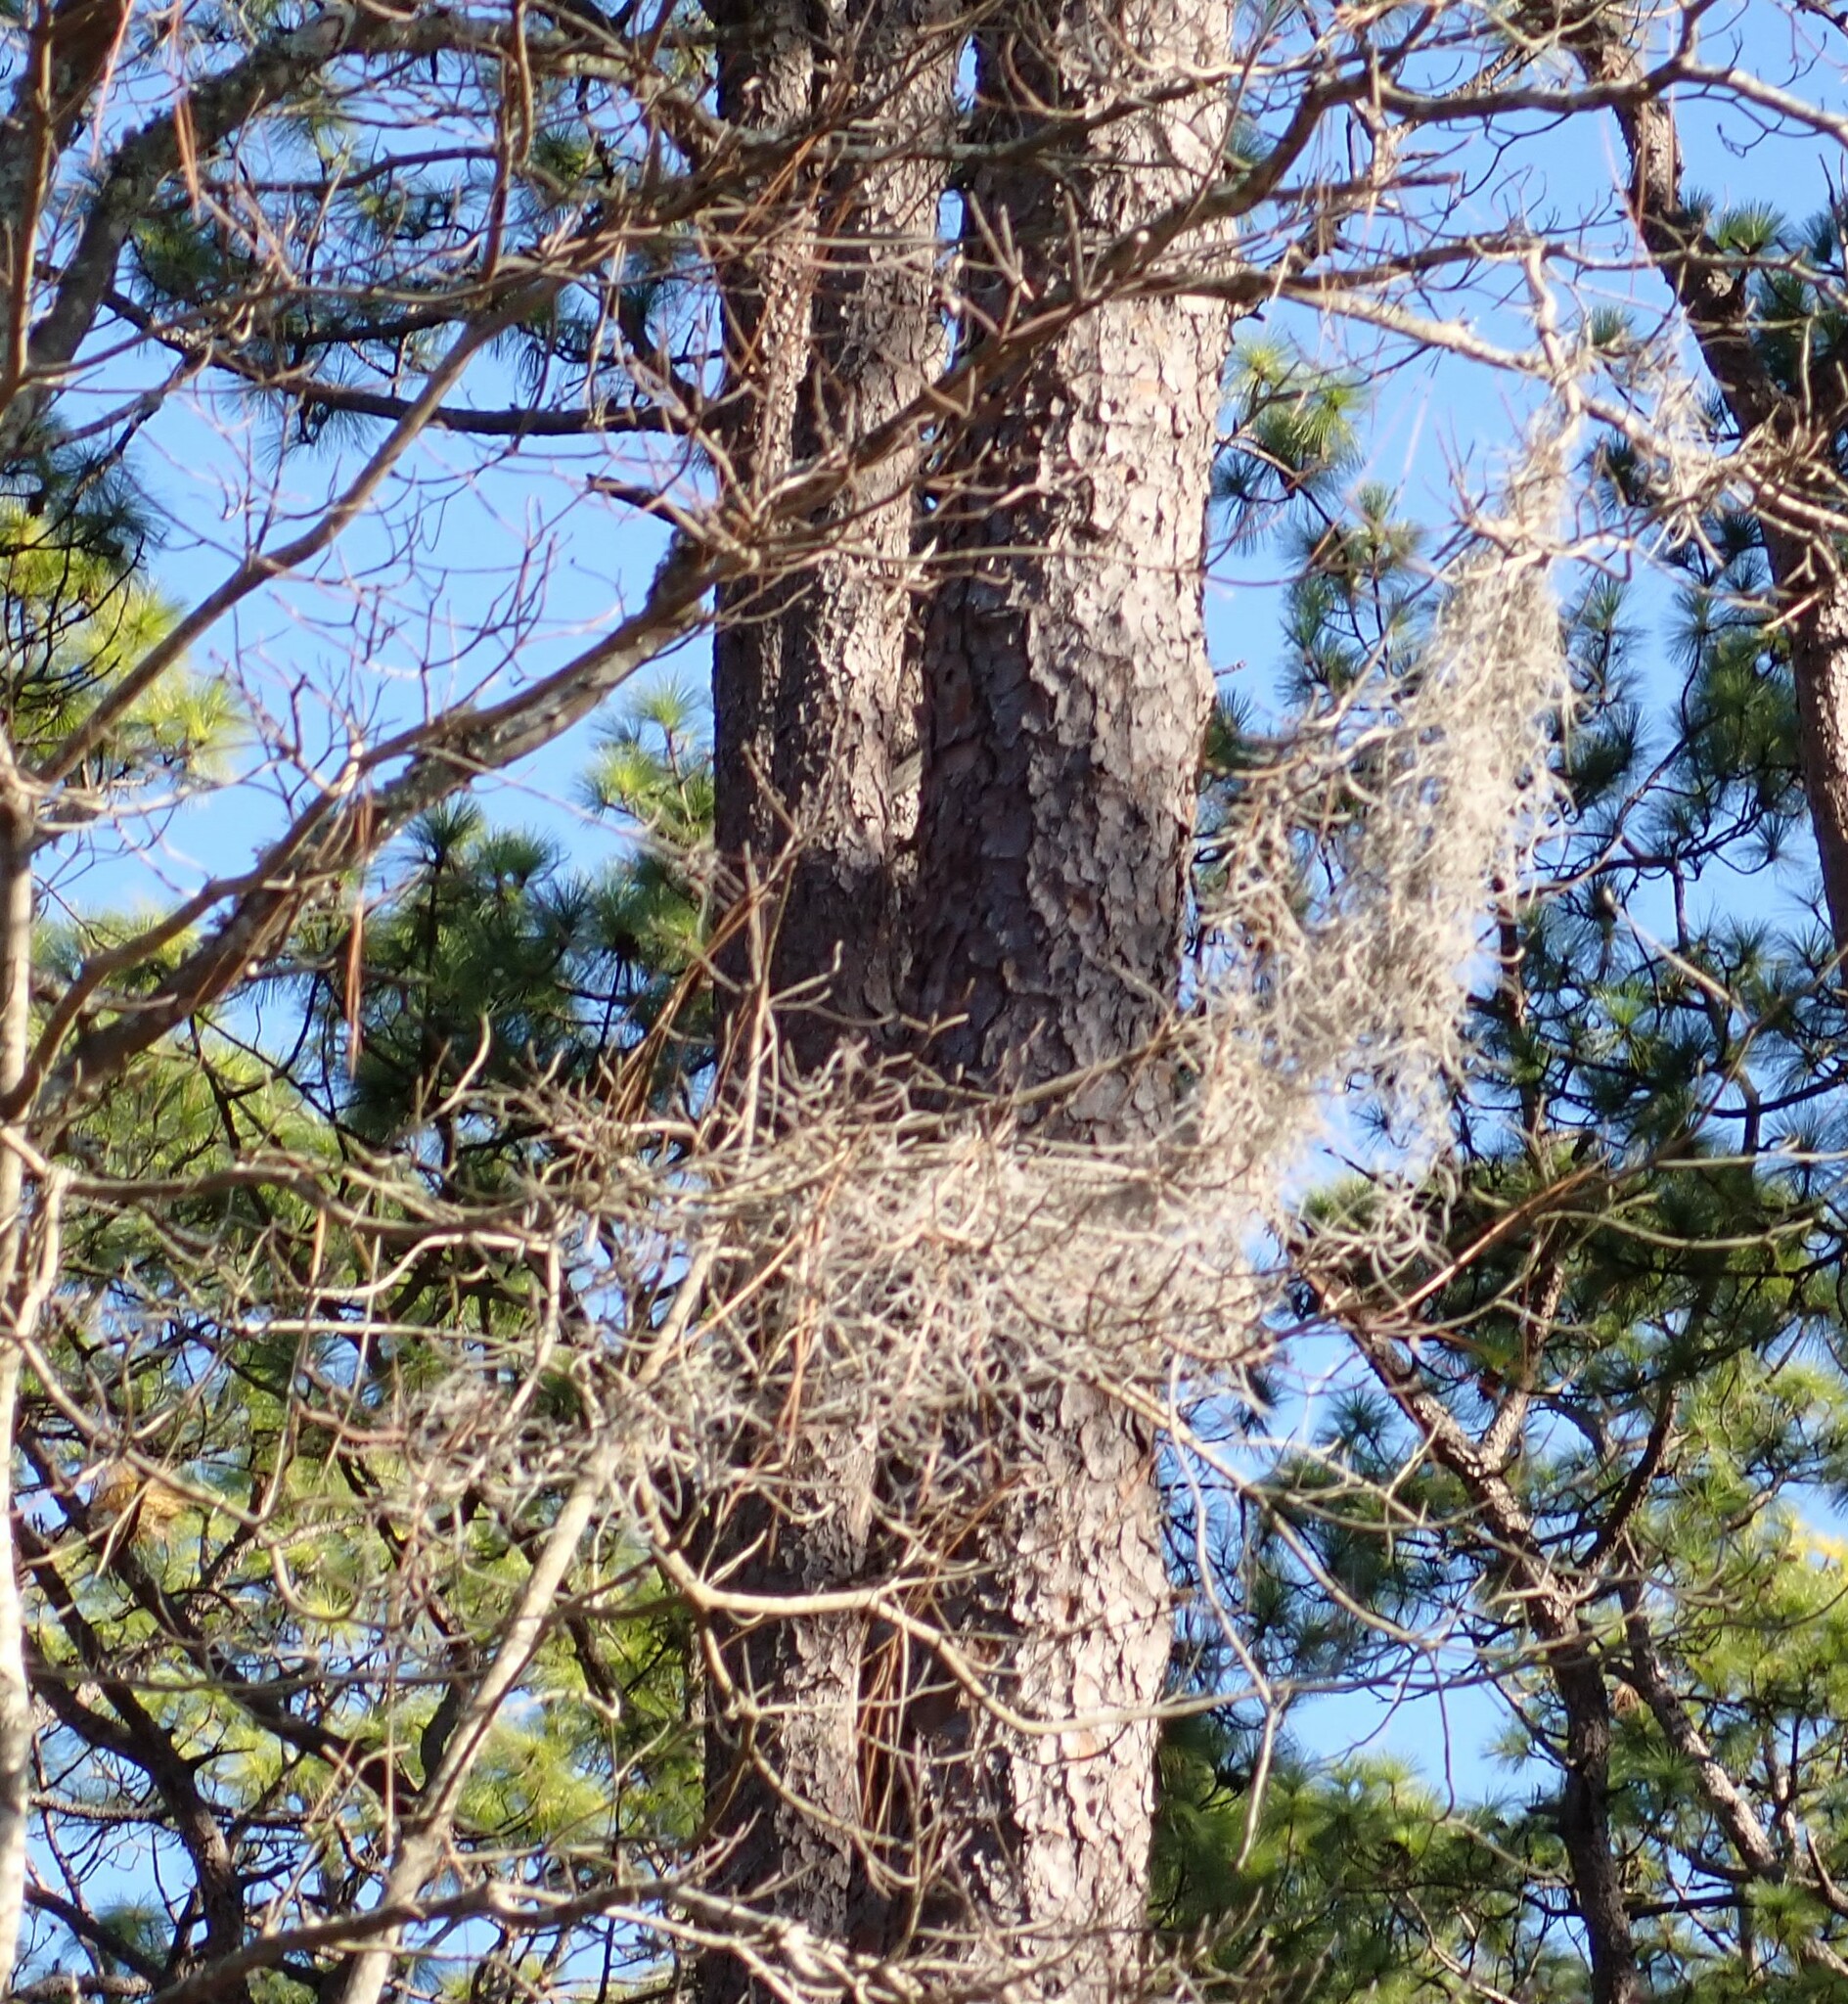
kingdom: Plantae
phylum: Tracheophyta
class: Liliopsida
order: Poales
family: Bromeliaceae
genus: Tillandsia
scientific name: Tillandsia usneoides
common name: Spanish moss
